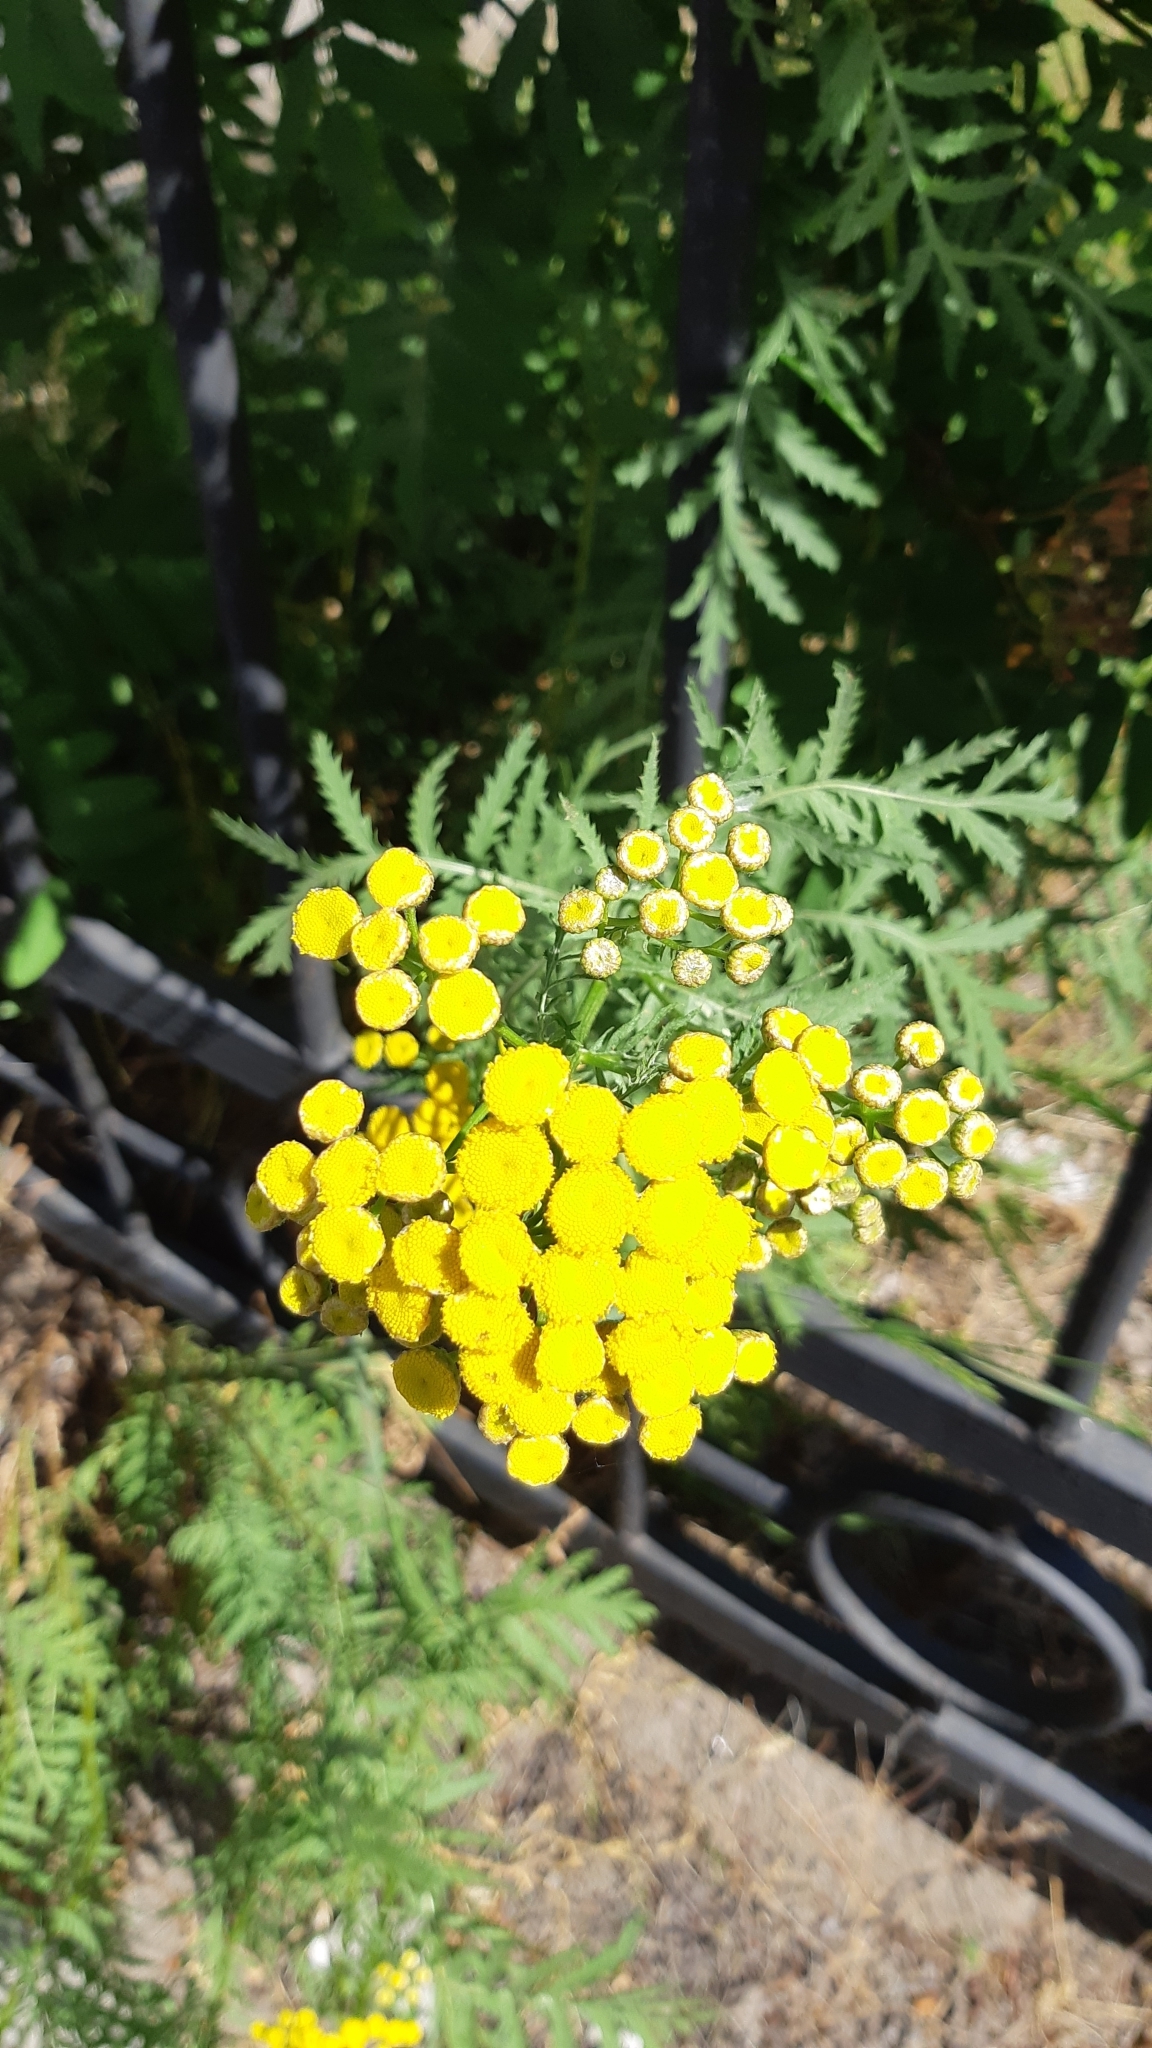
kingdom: Plantae
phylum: Tracheophyta
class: Magnoliopsida
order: Asterales
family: Asteraceae
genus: Tanacetum
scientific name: Tanacetum vulgare
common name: Common tansy
